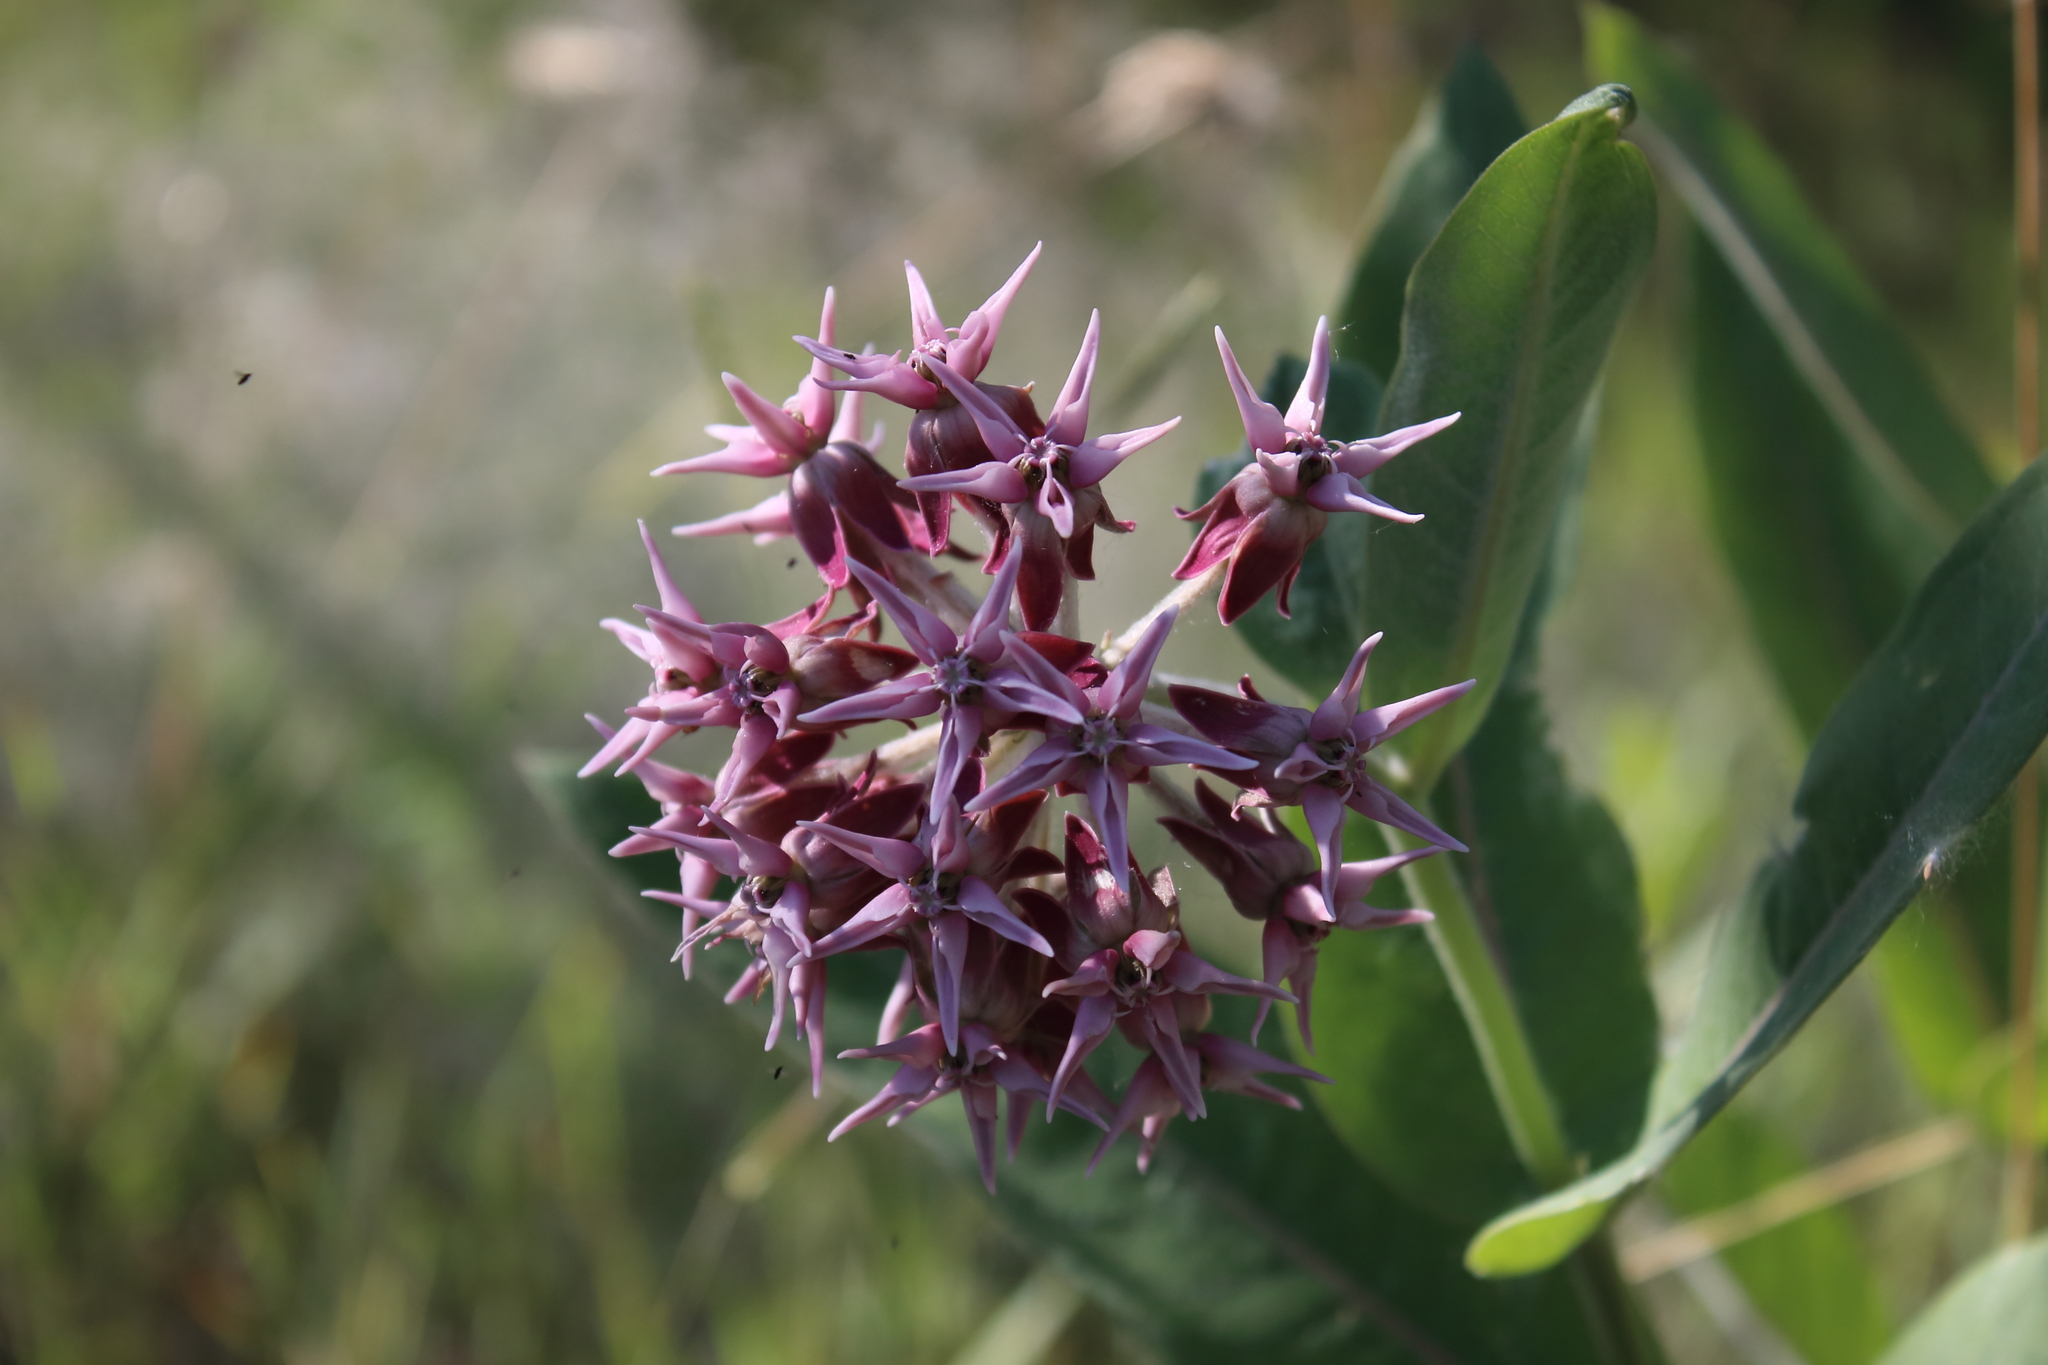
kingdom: Plantae
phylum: Tracheophyta
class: Magnoliopsida
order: Gentianales
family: Apocynaceae
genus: Asclepias
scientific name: Asclepias speciosa
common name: Showy milkweed
